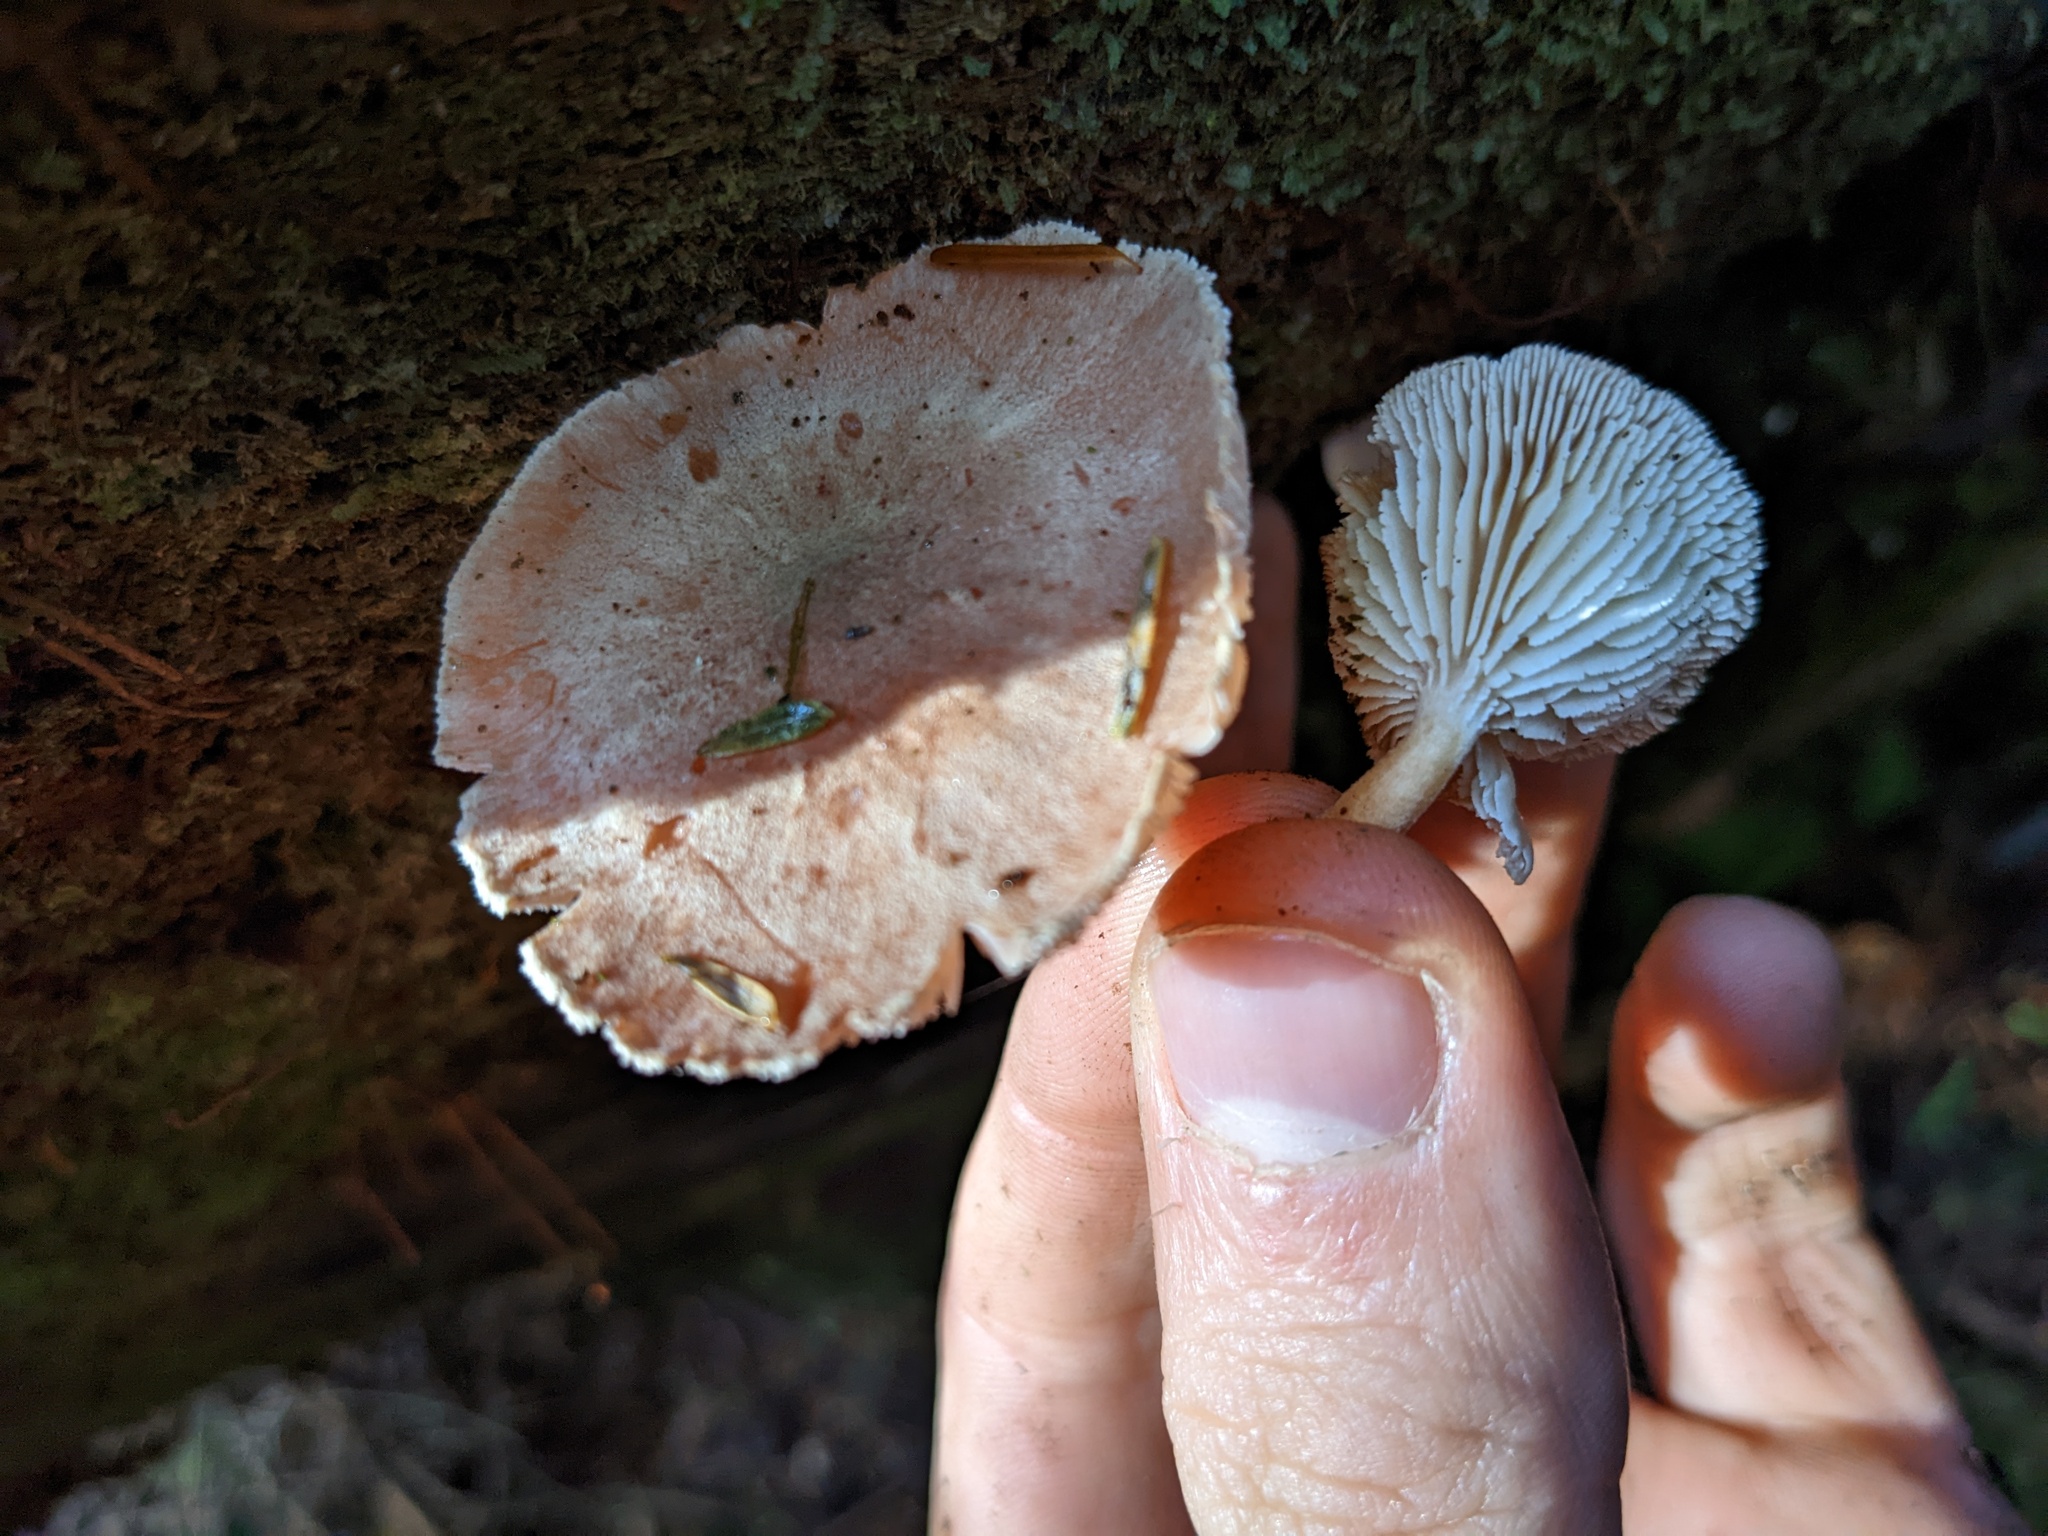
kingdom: Fungi
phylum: Basidiomycota
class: Agaricomycetes
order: Gloeophyllales
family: Gloeophyllaceae
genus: Neolentinus
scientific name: Neolentinus kauffmanii
